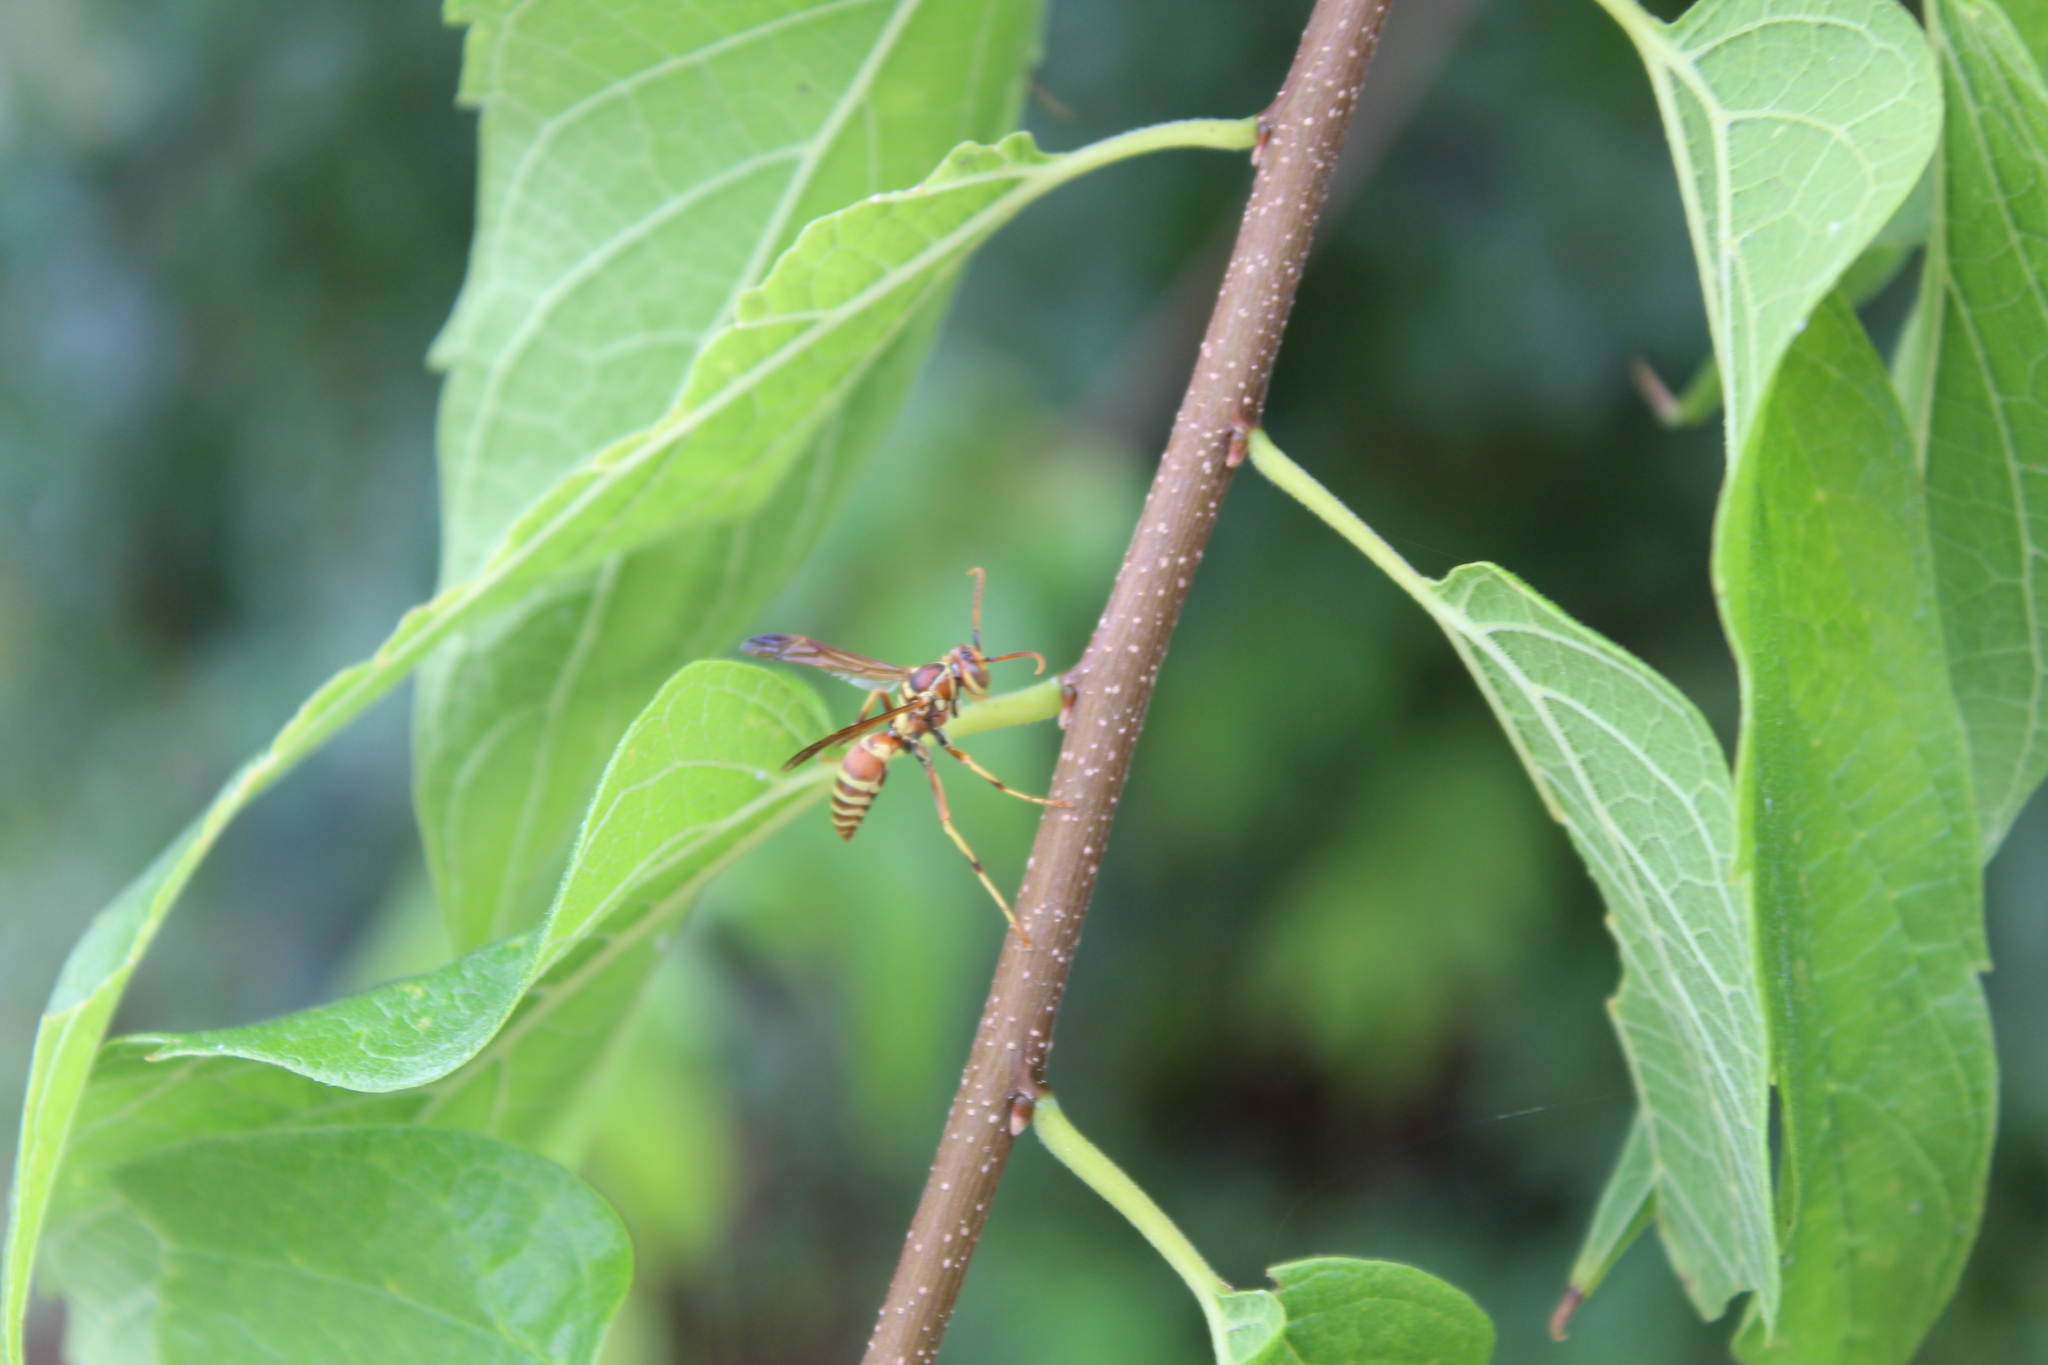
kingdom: Animalia
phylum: Arthropoda
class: Insecta
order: Hymenoptera
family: Eumenidae
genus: Polistes
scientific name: Polistes dorsalis
